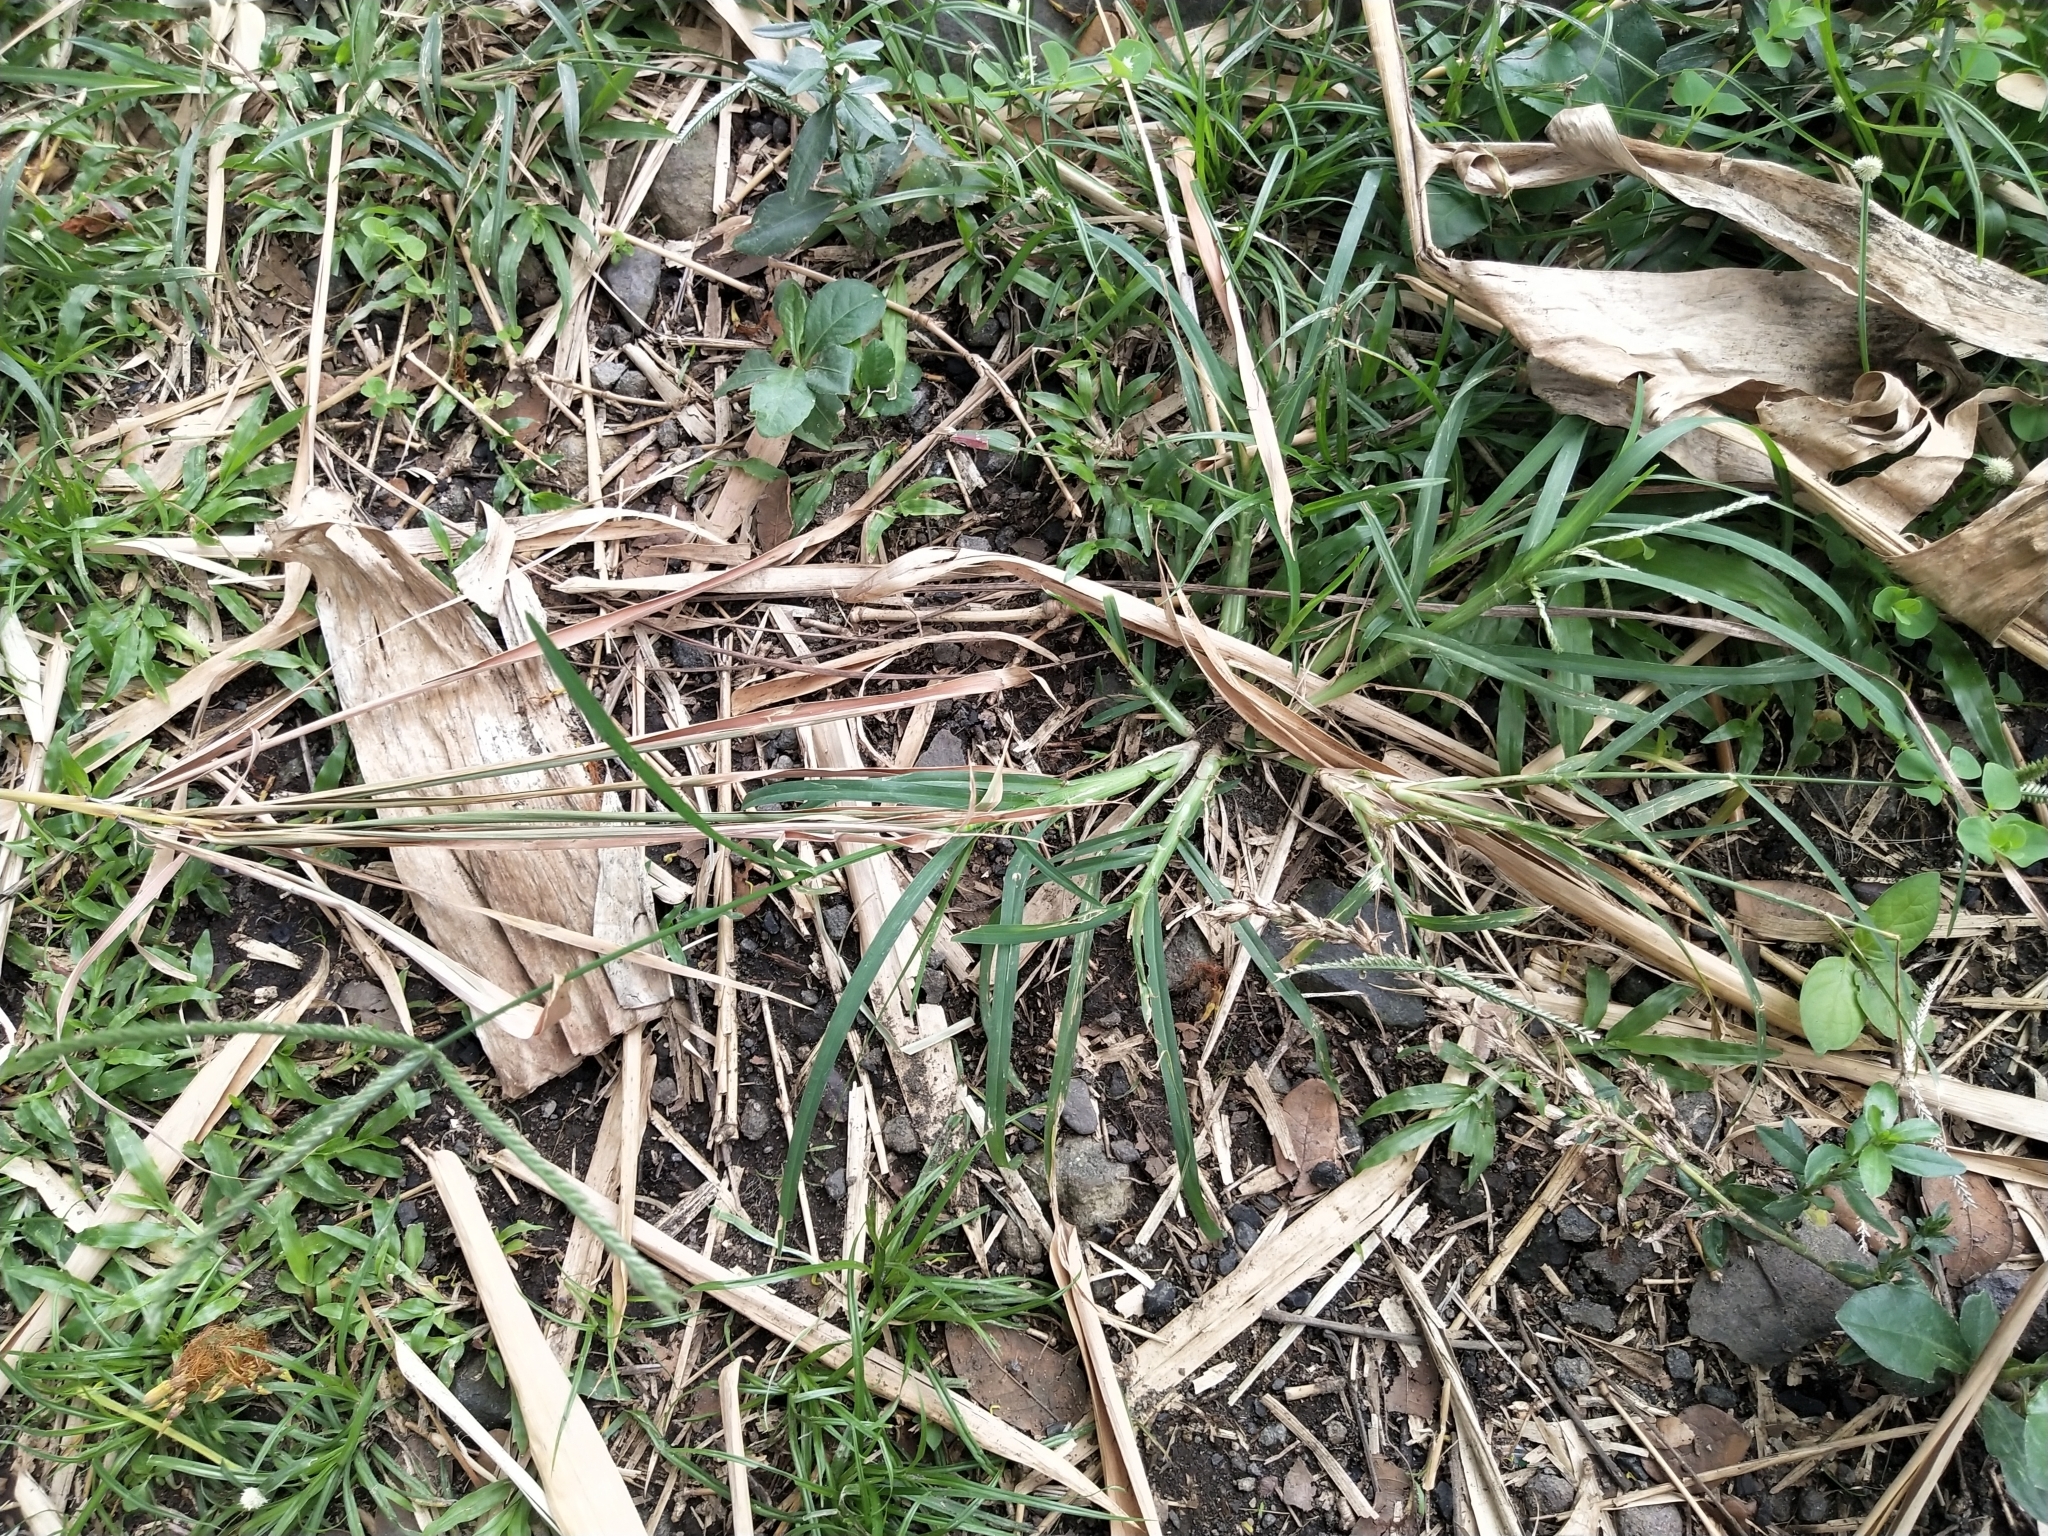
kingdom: Plantae
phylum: Tracheophyta
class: Liliopsida
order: Poales
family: Poaceae
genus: Eleusine
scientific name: Eleusine indica
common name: Yard-grass
